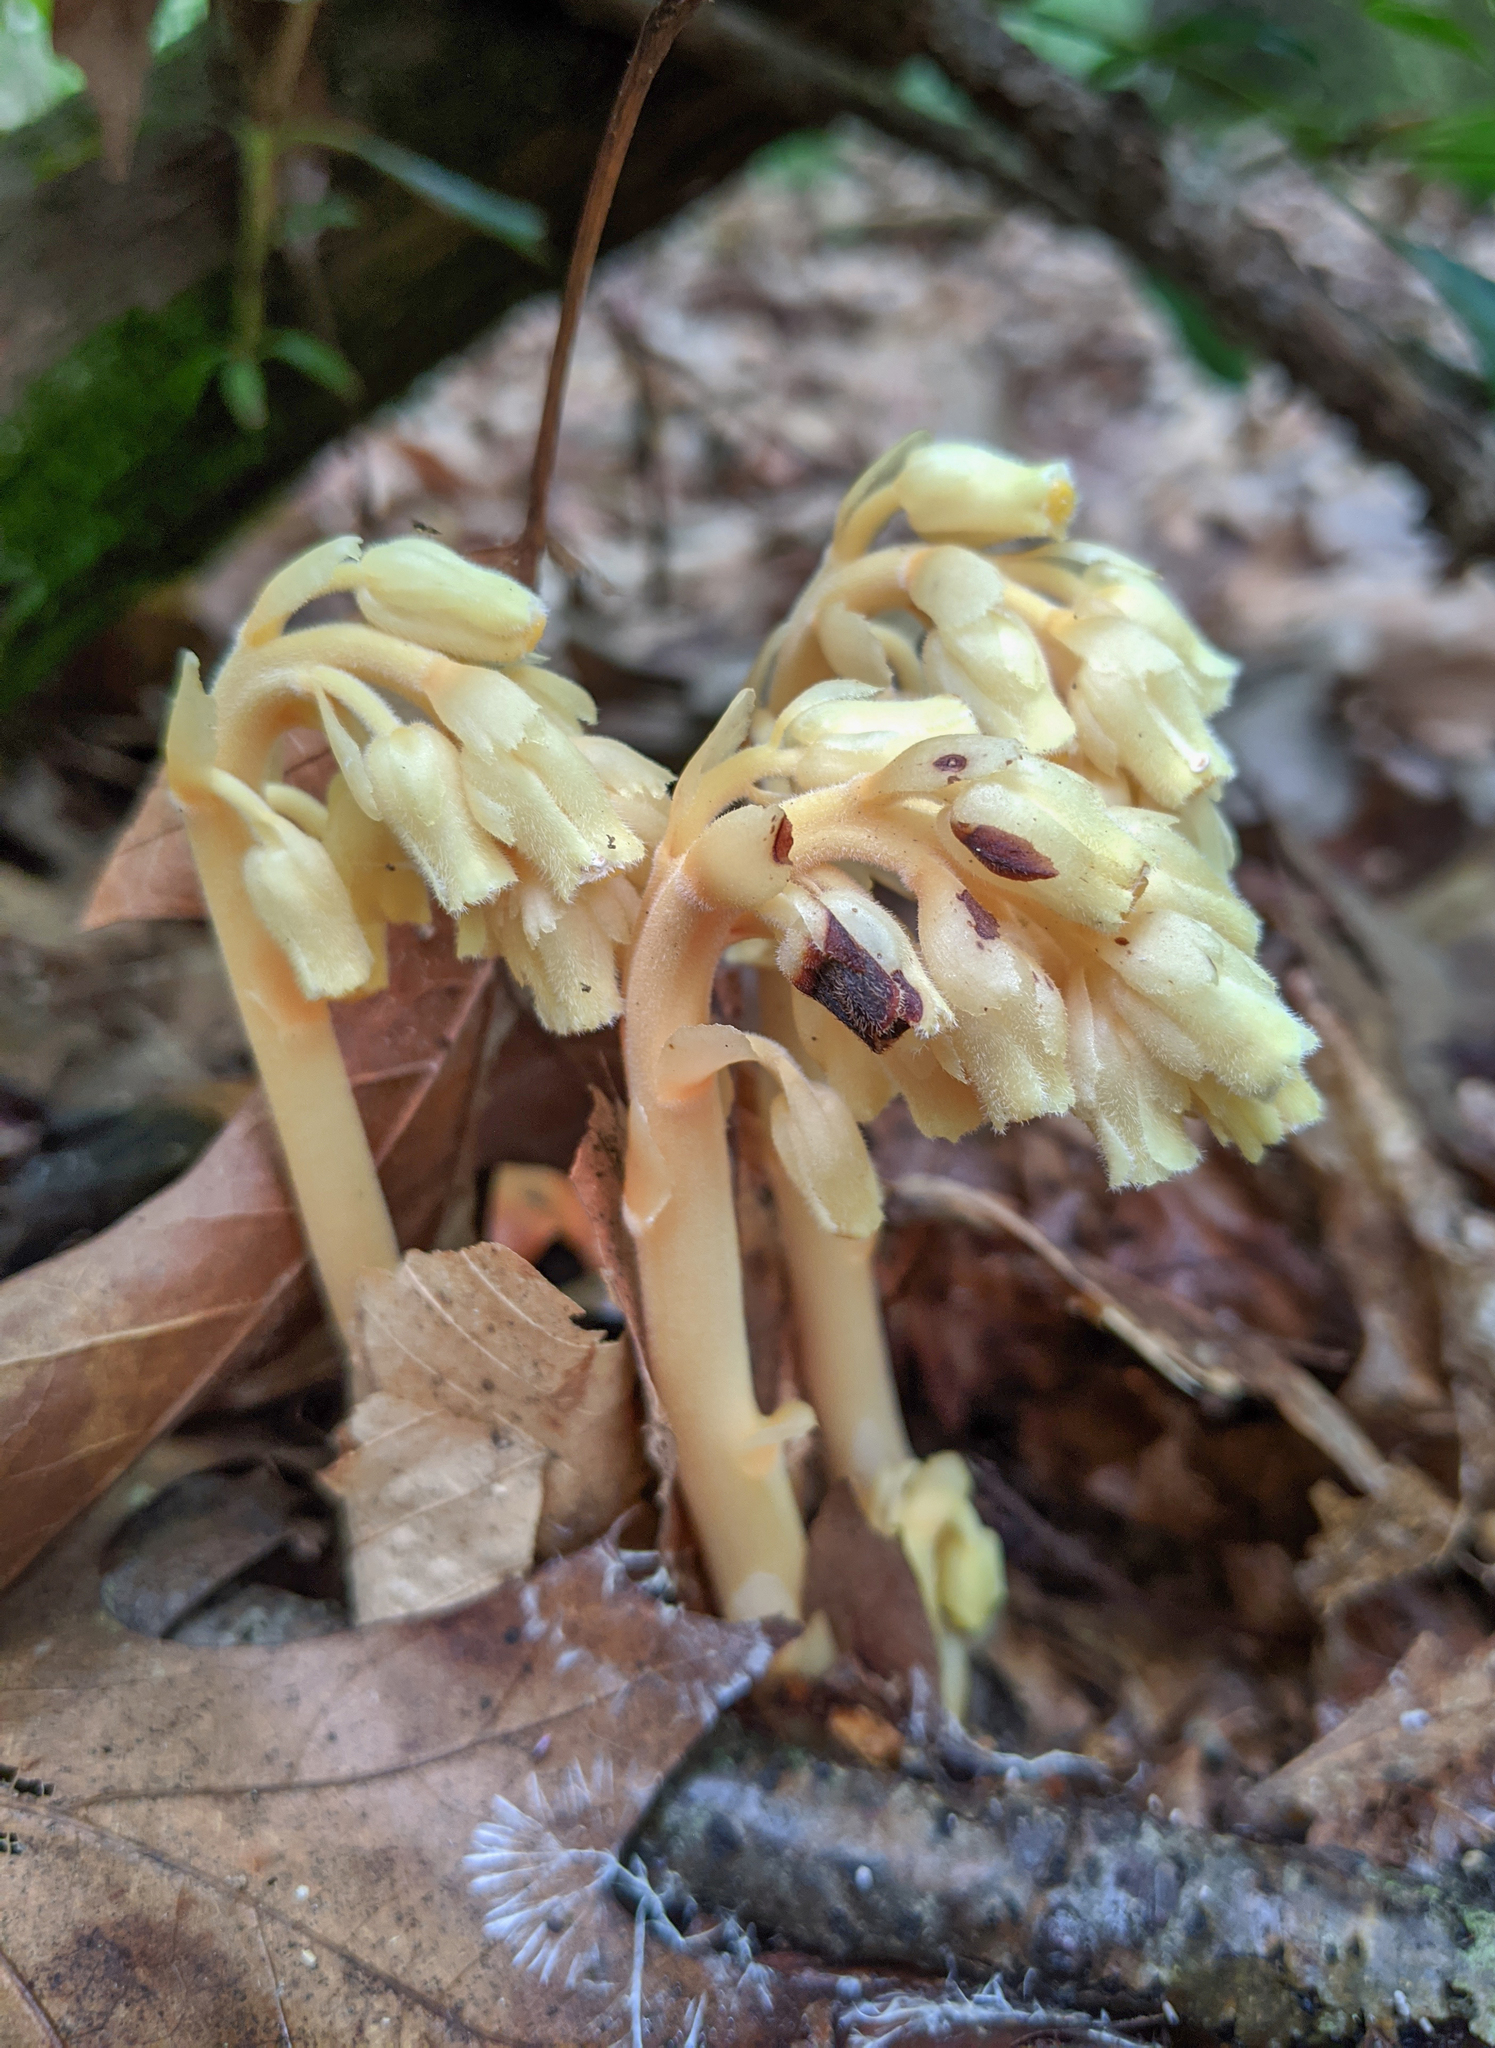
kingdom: Plantae
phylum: Tracheophyta
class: Magnoliopsida
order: Ericales
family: Ericaceae
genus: Hypopitys
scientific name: Hypopitys monotropa
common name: Yellow bird's-nest
